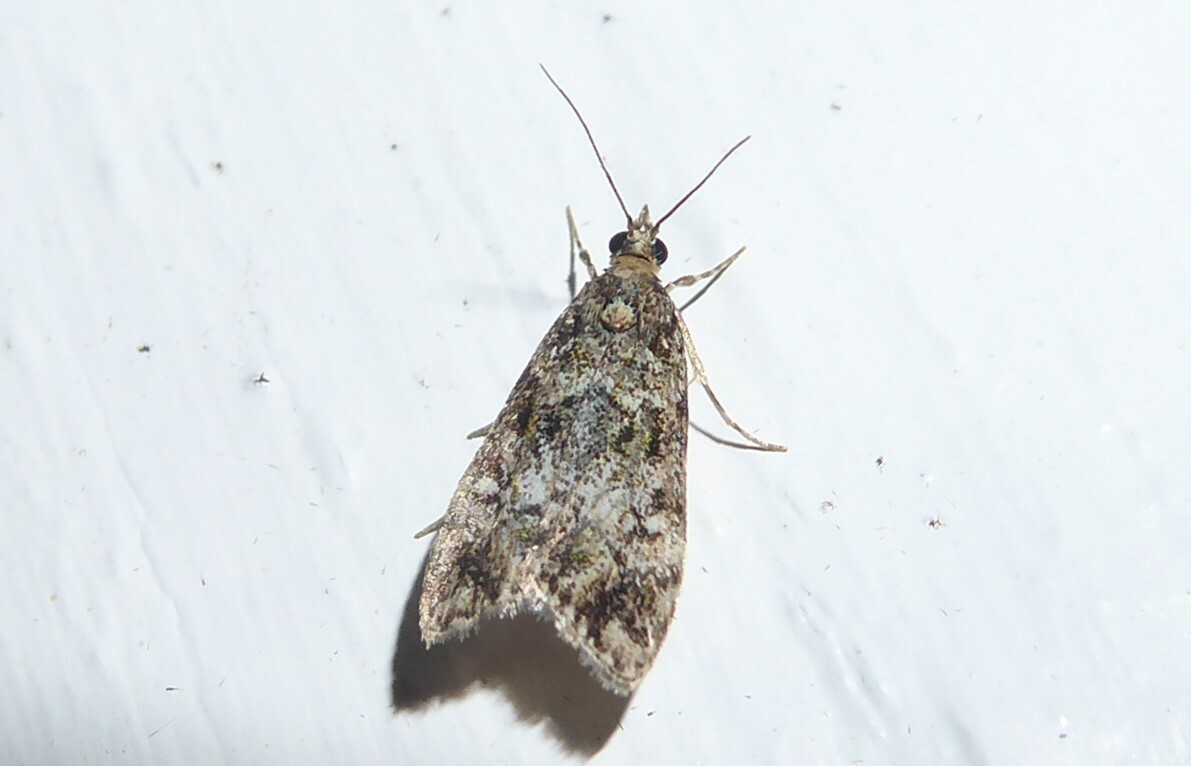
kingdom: Animalia
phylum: Arthropoda
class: Insecta
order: Lepidoptera
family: Crambidae
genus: Eudonia
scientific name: Eudonia minualis
